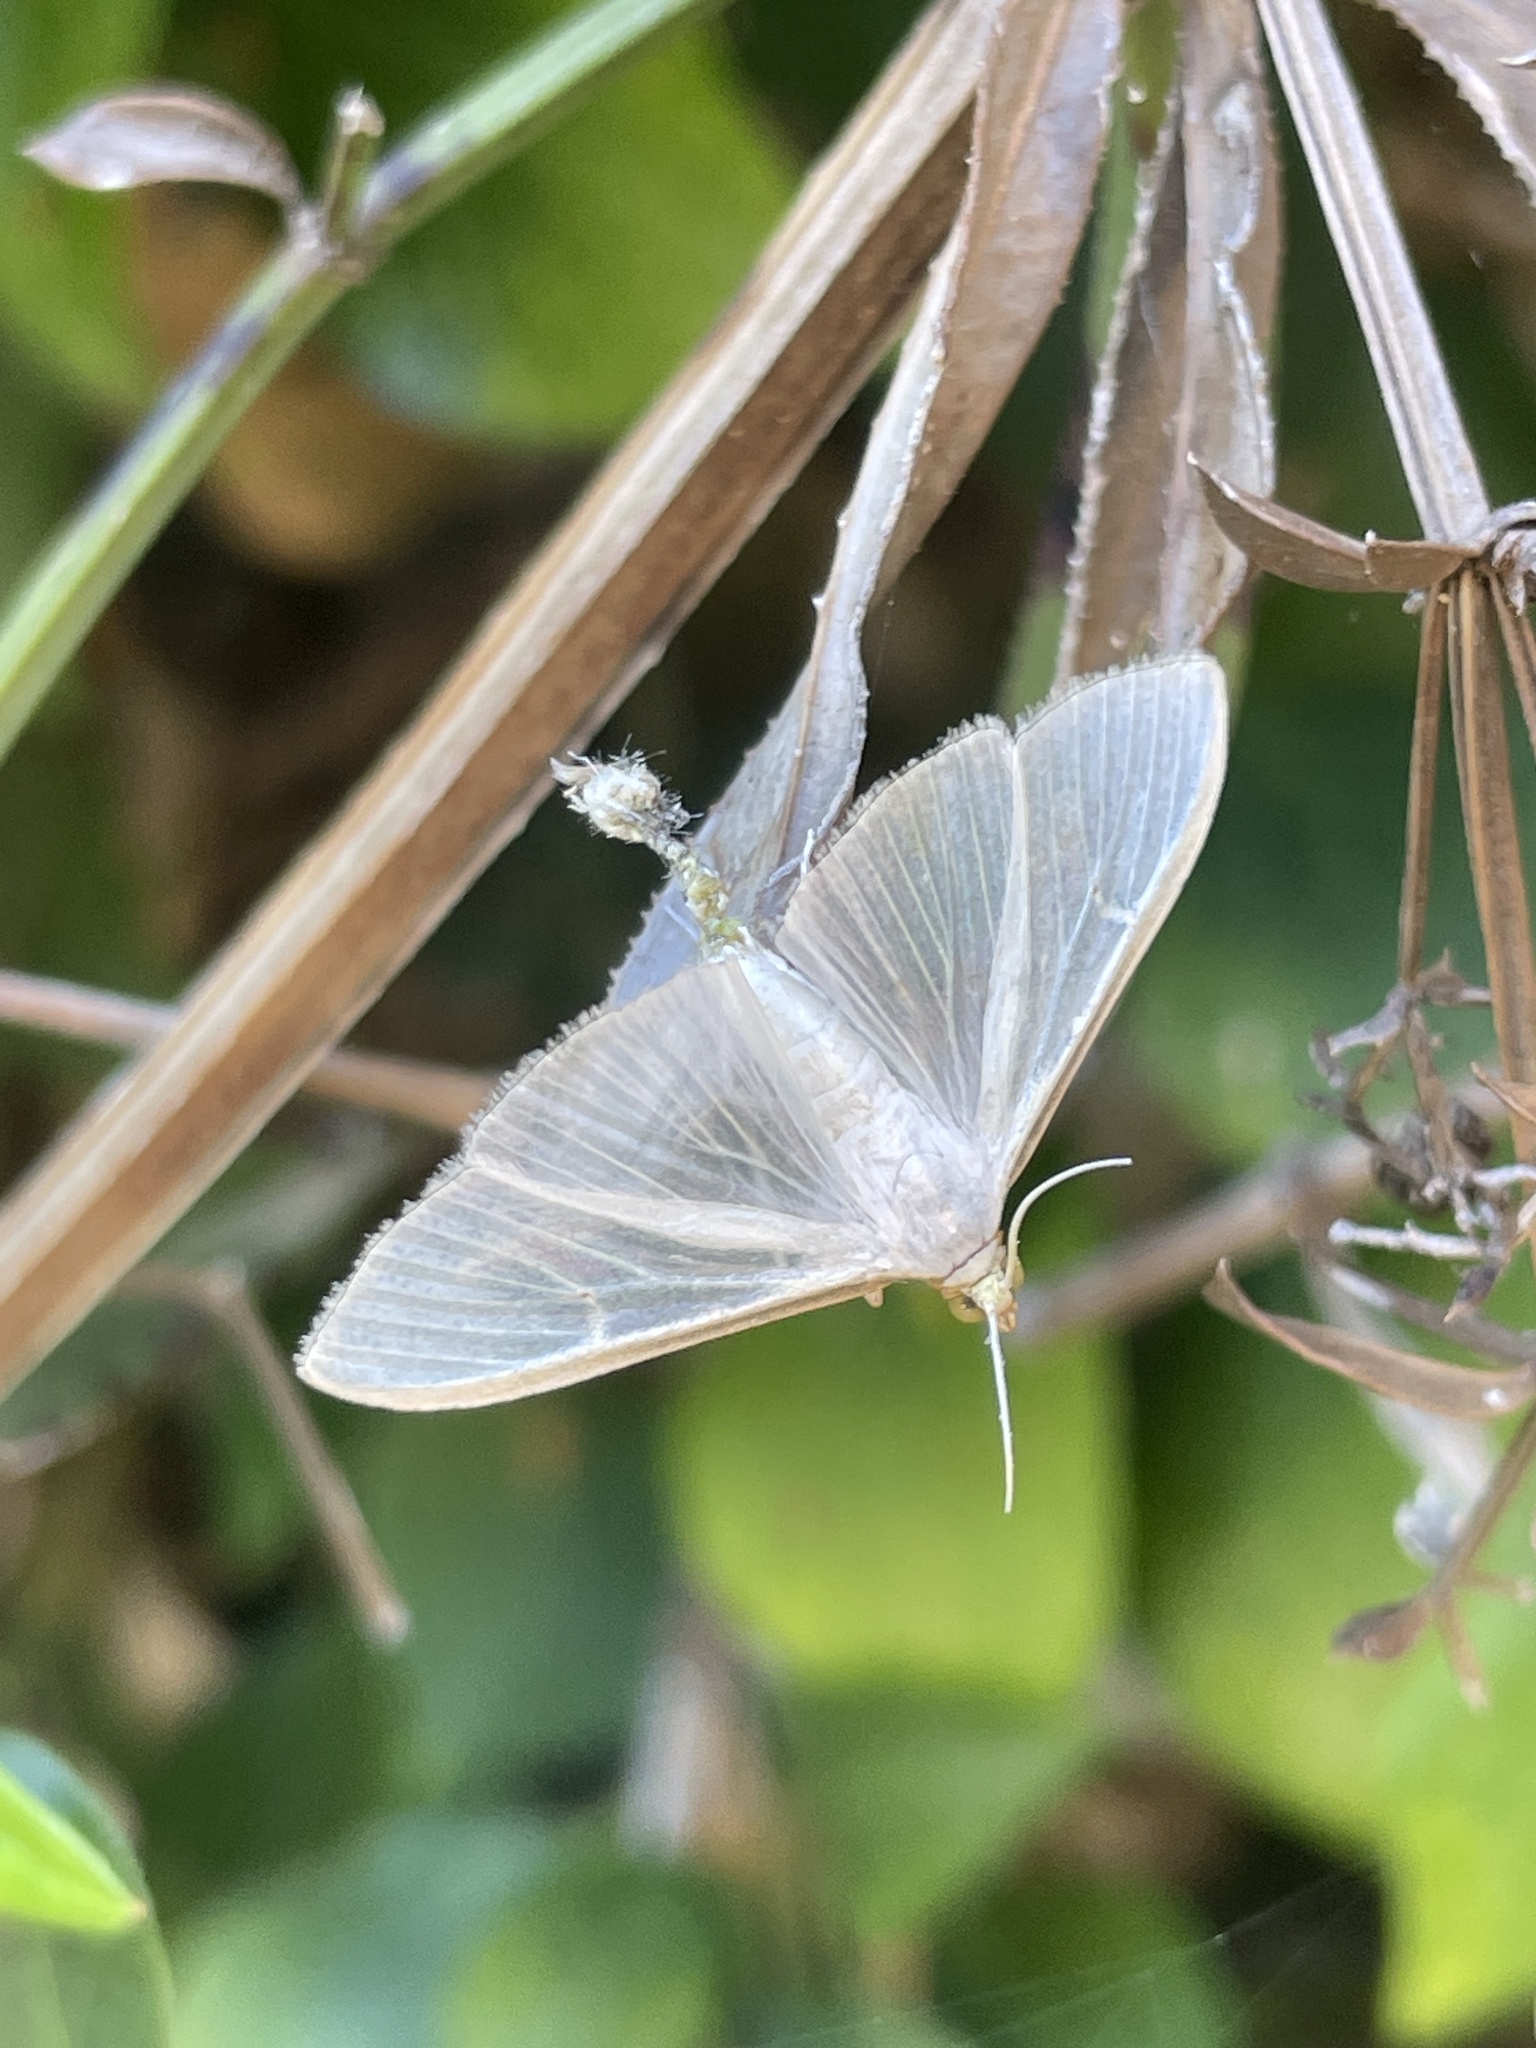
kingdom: Animalia
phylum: Arthropoda
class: Insecta
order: Lepidoptera
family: Crambidae
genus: Palpita
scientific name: Palpita vitrealis
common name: Olive-tree pearl
